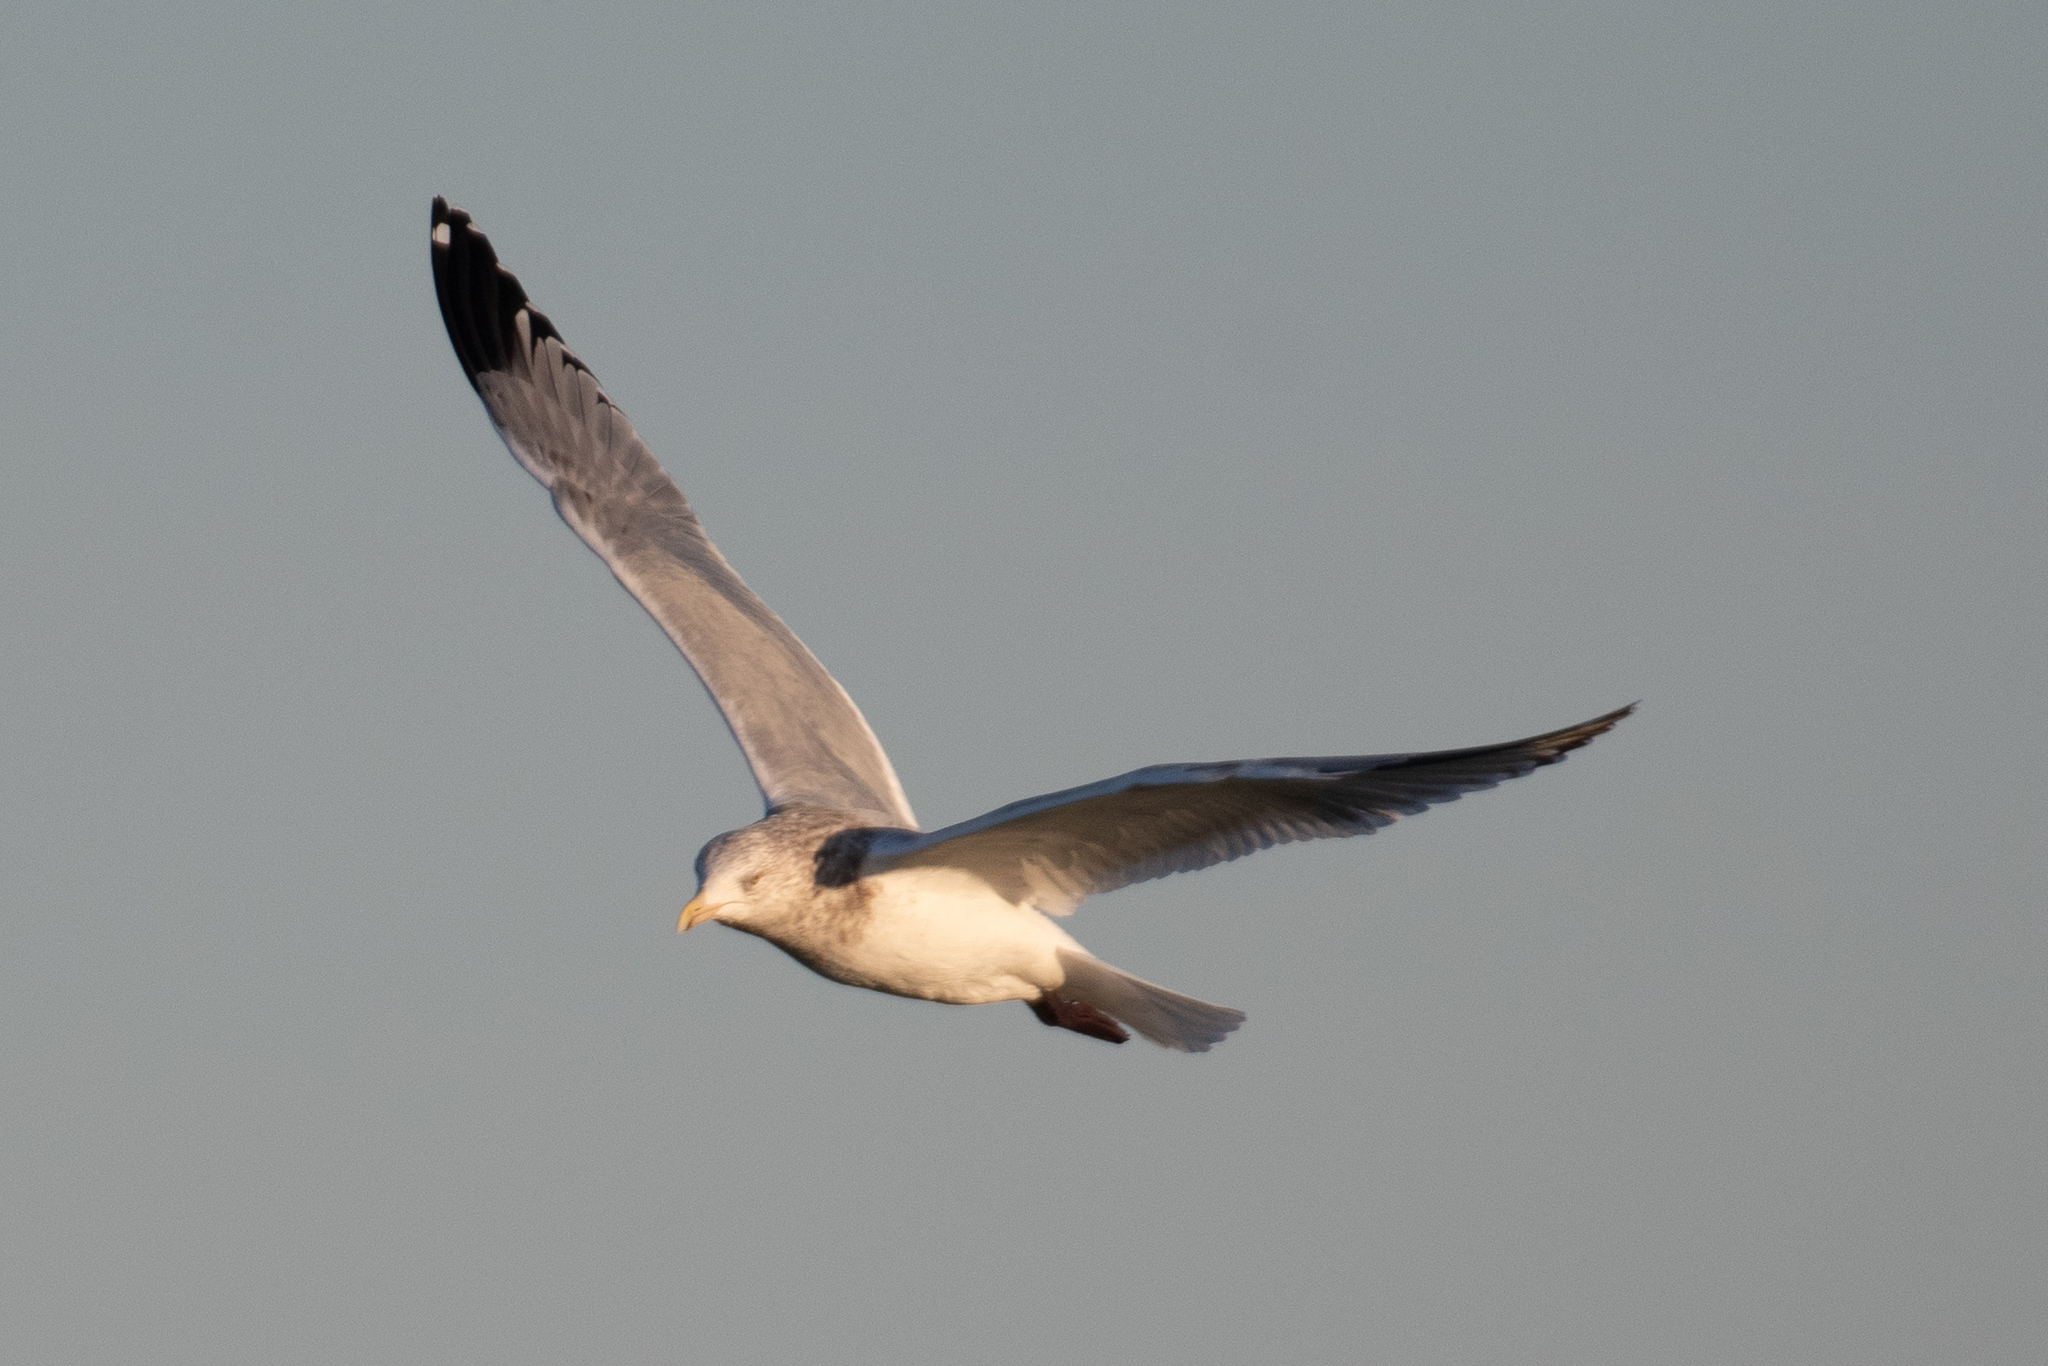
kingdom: Animalia
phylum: Chordata
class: Aves
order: Charadriiformes
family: Laridae
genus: Larus
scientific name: Larus argentatus
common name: Herring gull
